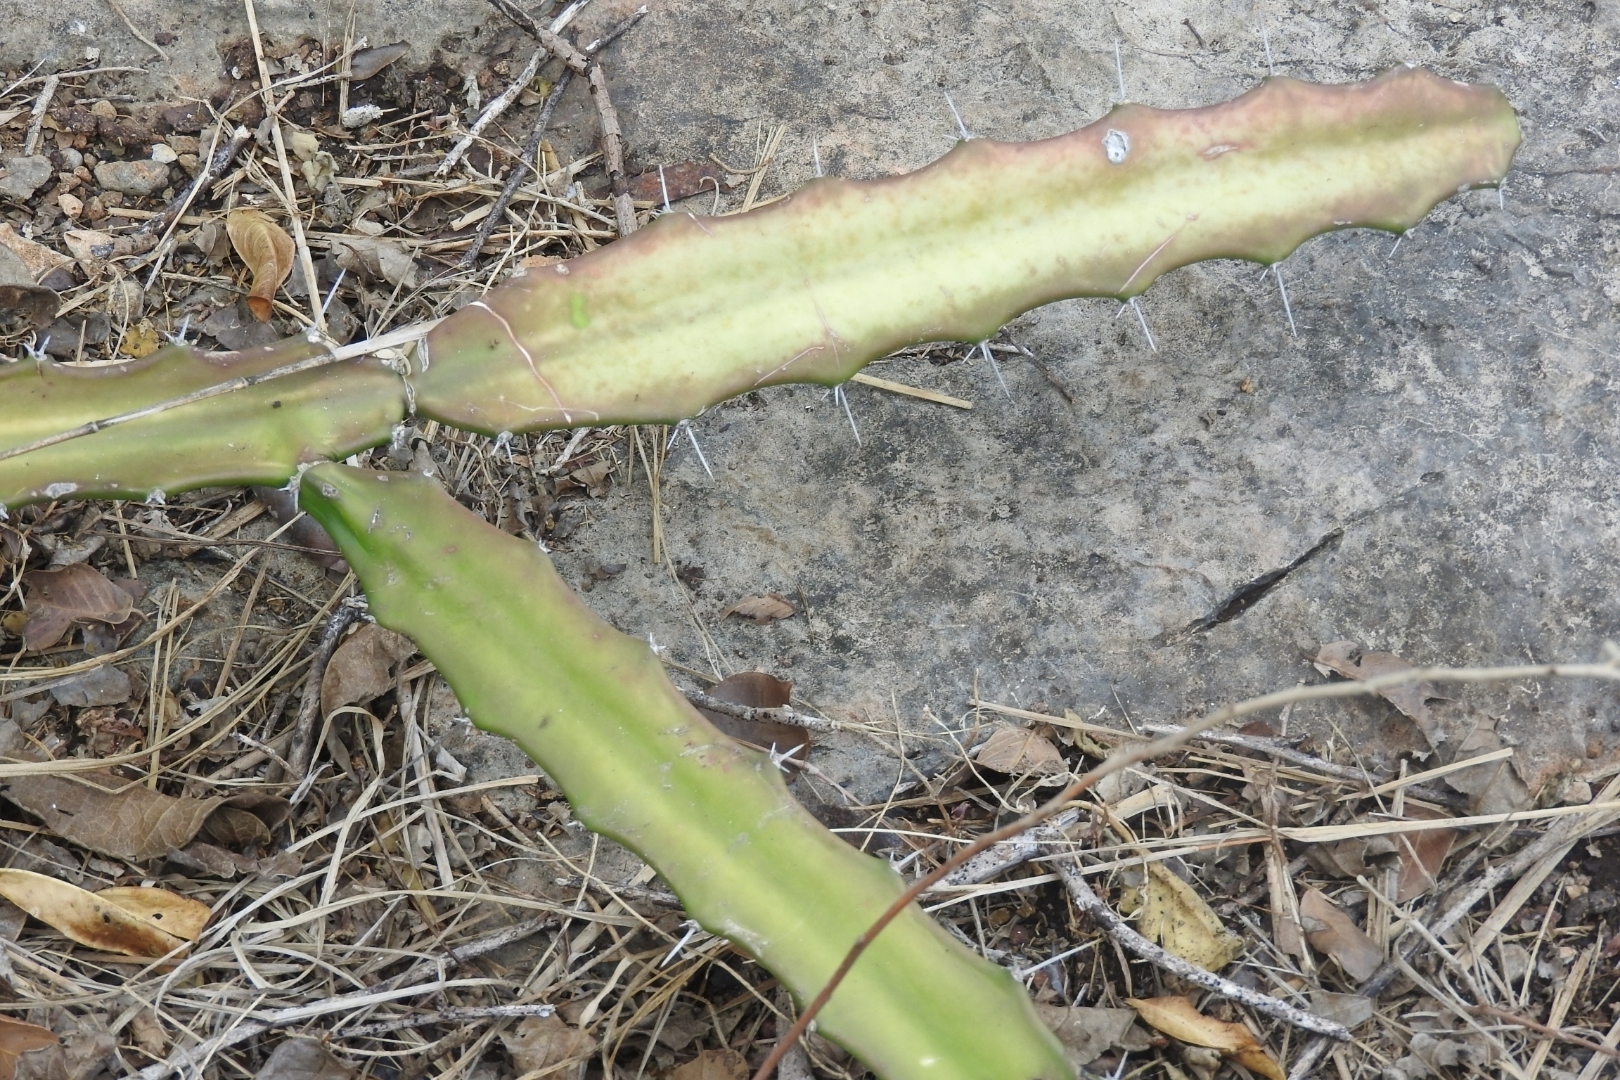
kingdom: Plantae
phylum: Tracheophyta
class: Magnoliopsida
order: Caryophyllales
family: Cactaceae
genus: Acanthocereus
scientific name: Acanthocereus tetragonus
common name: Triangle cactus
